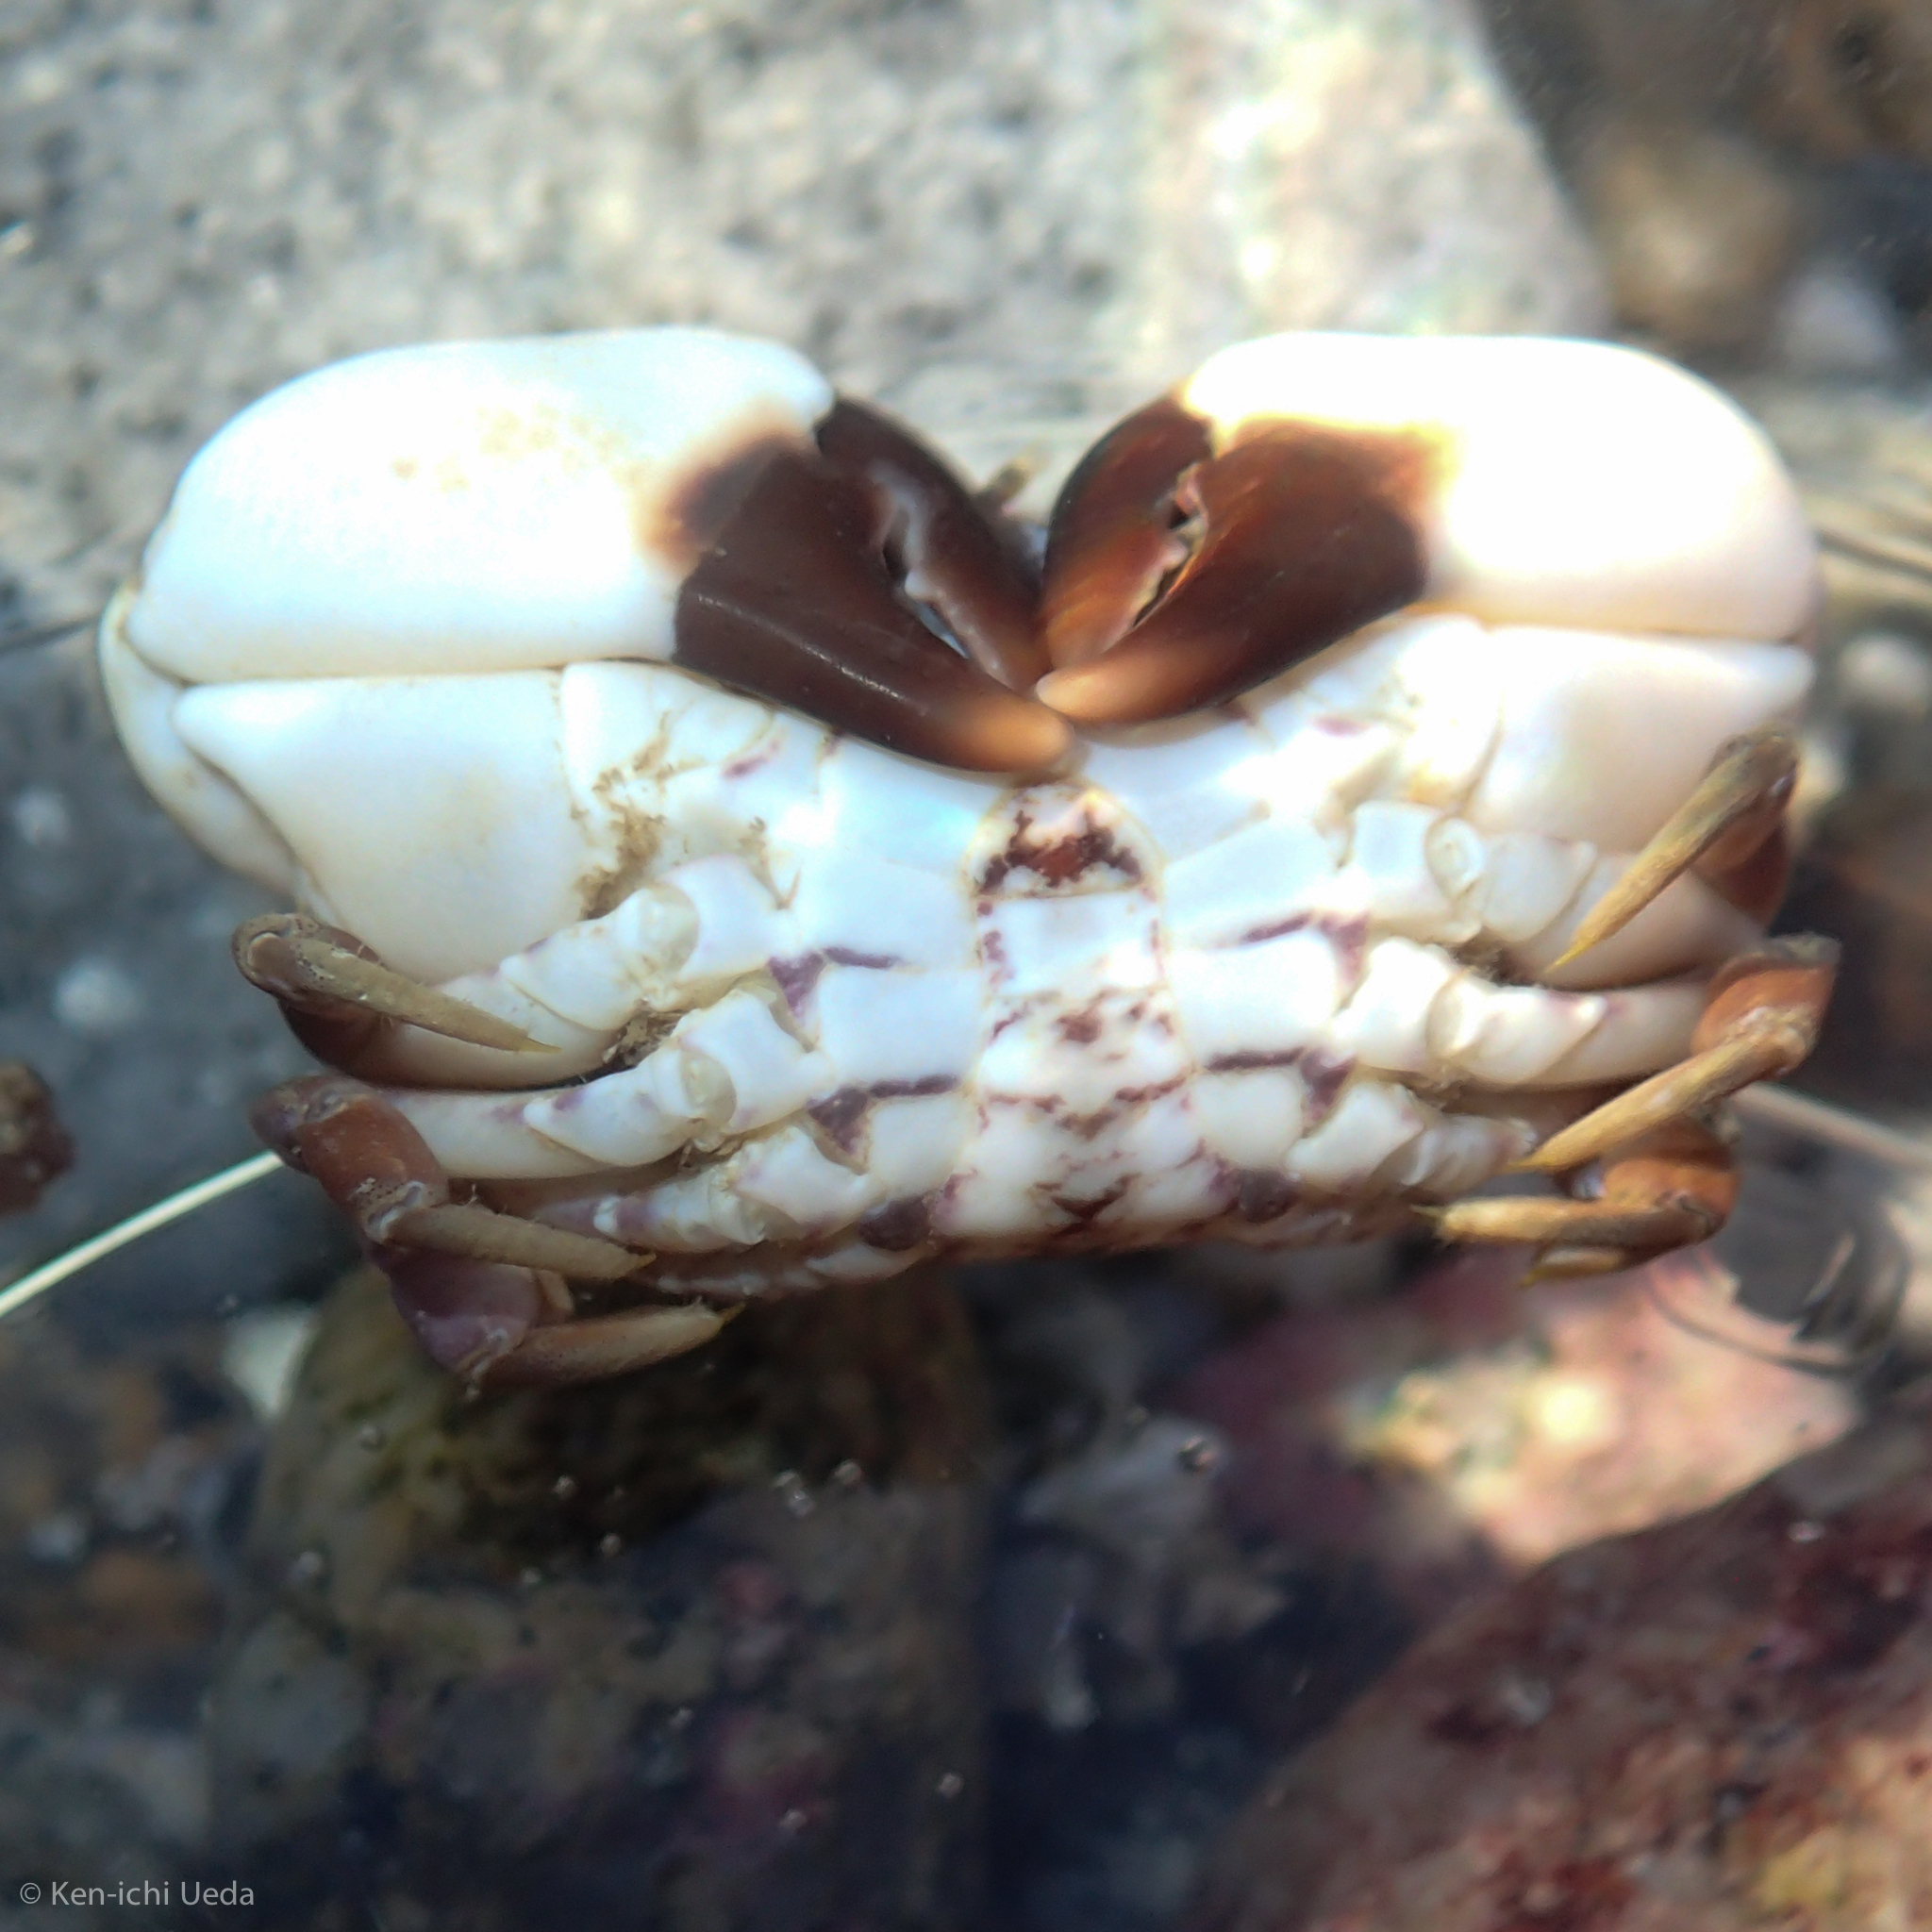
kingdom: Animalia
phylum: Arthropoda
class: Malacostraca
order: Decapoda
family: Panopeidae
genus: Lophopanopeus
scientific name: Lophopanopeus leucomanus
